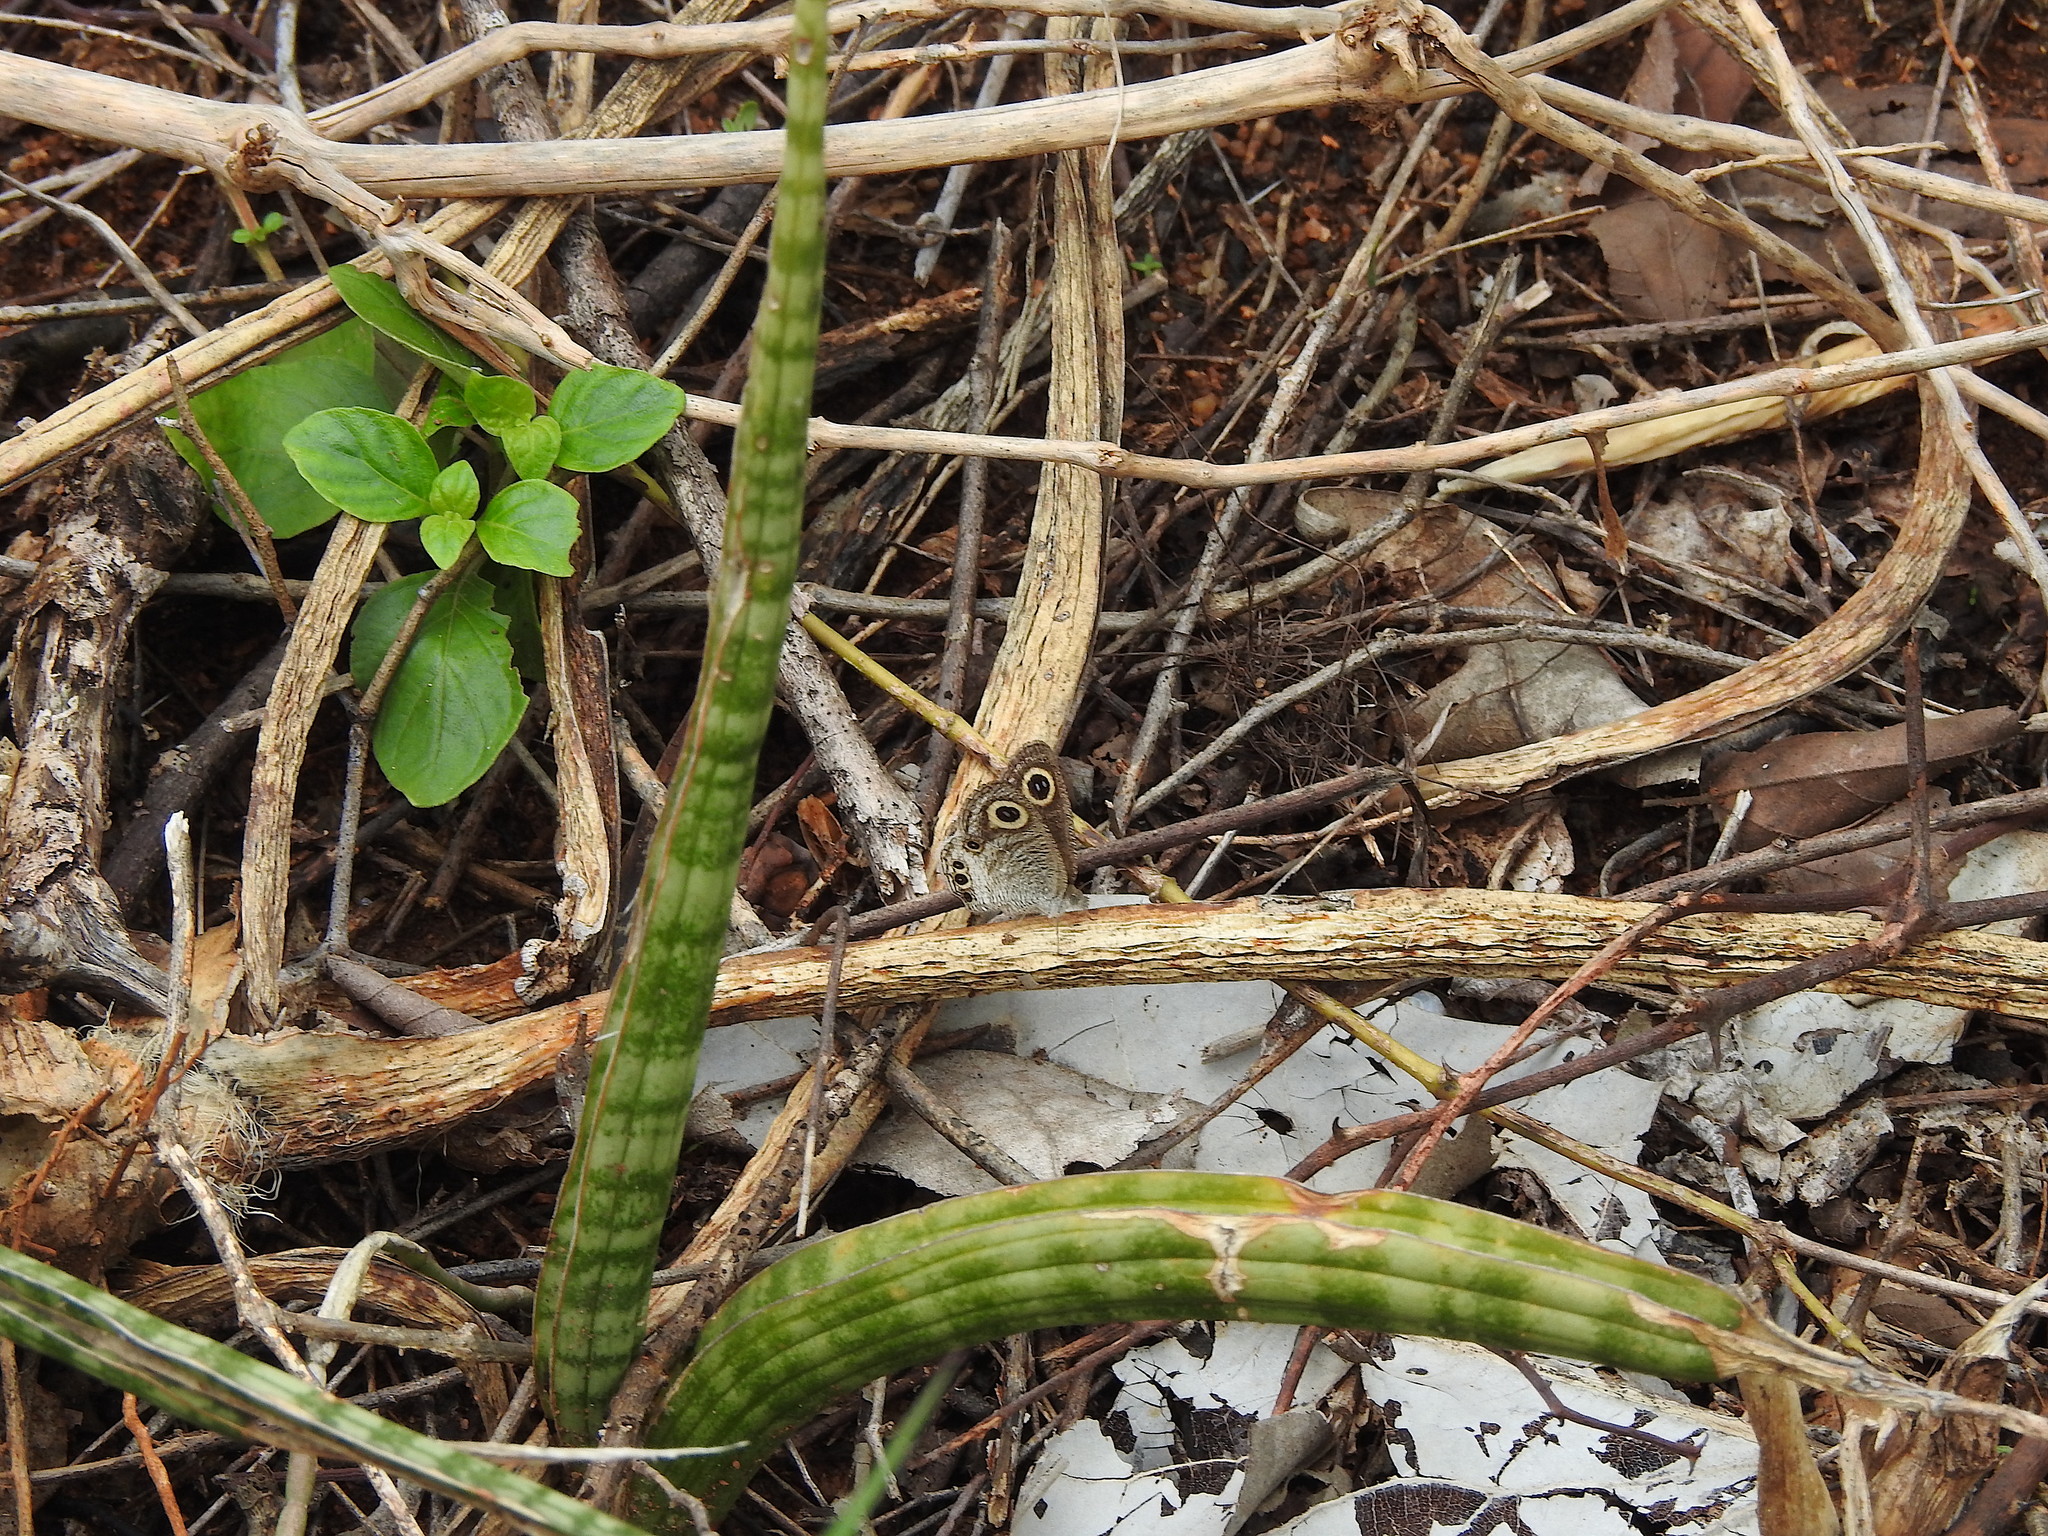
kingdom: Animalia
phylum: Arthropoda
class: Insecta
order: Lepidoptera
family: Nymphalidae
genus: Ypthima
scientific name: Ypthima huebneri
